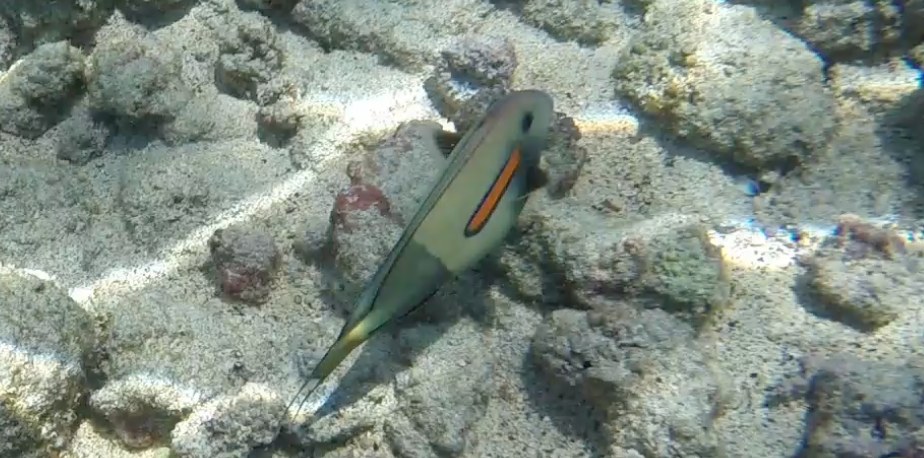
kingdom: Animalia
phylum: Chordata
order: Perciformes
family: Acanthuridae
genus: Acanthurus
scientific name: Acanthurus olivaceus
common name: Gendarme fish
